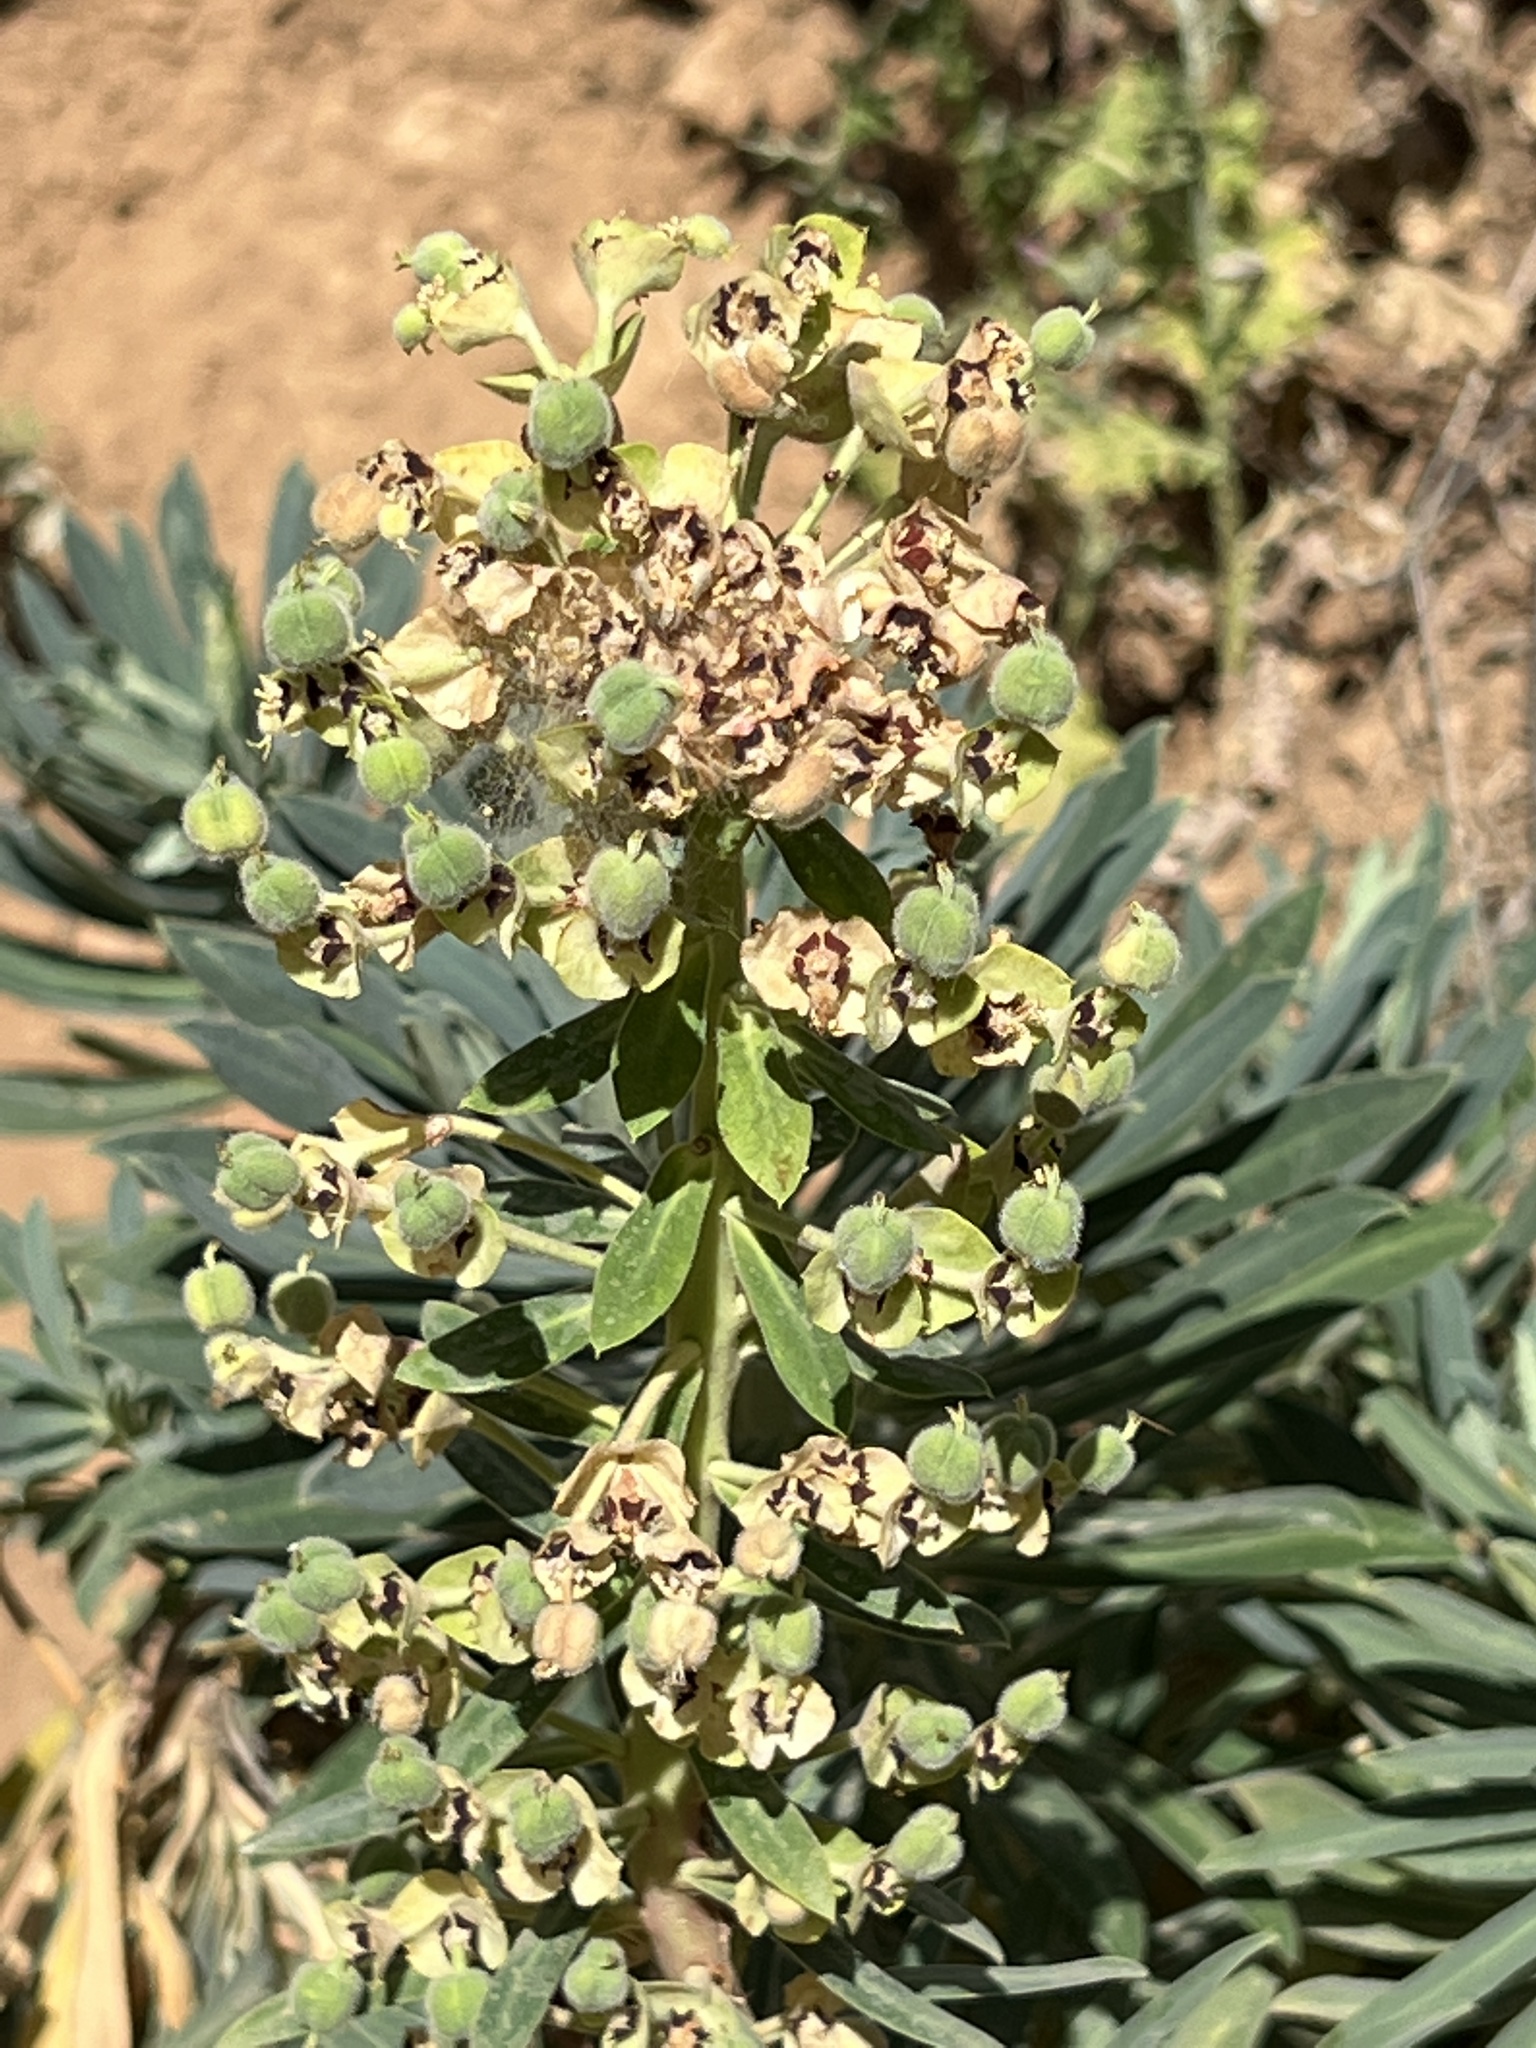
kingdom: Plantae
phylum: Tracheophyta
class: Magnoliopsida
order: Malpighiales
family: Euphorbiaceae
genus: Euphorbia
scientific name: Euphorbia characias
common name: Mediterranean spurge
